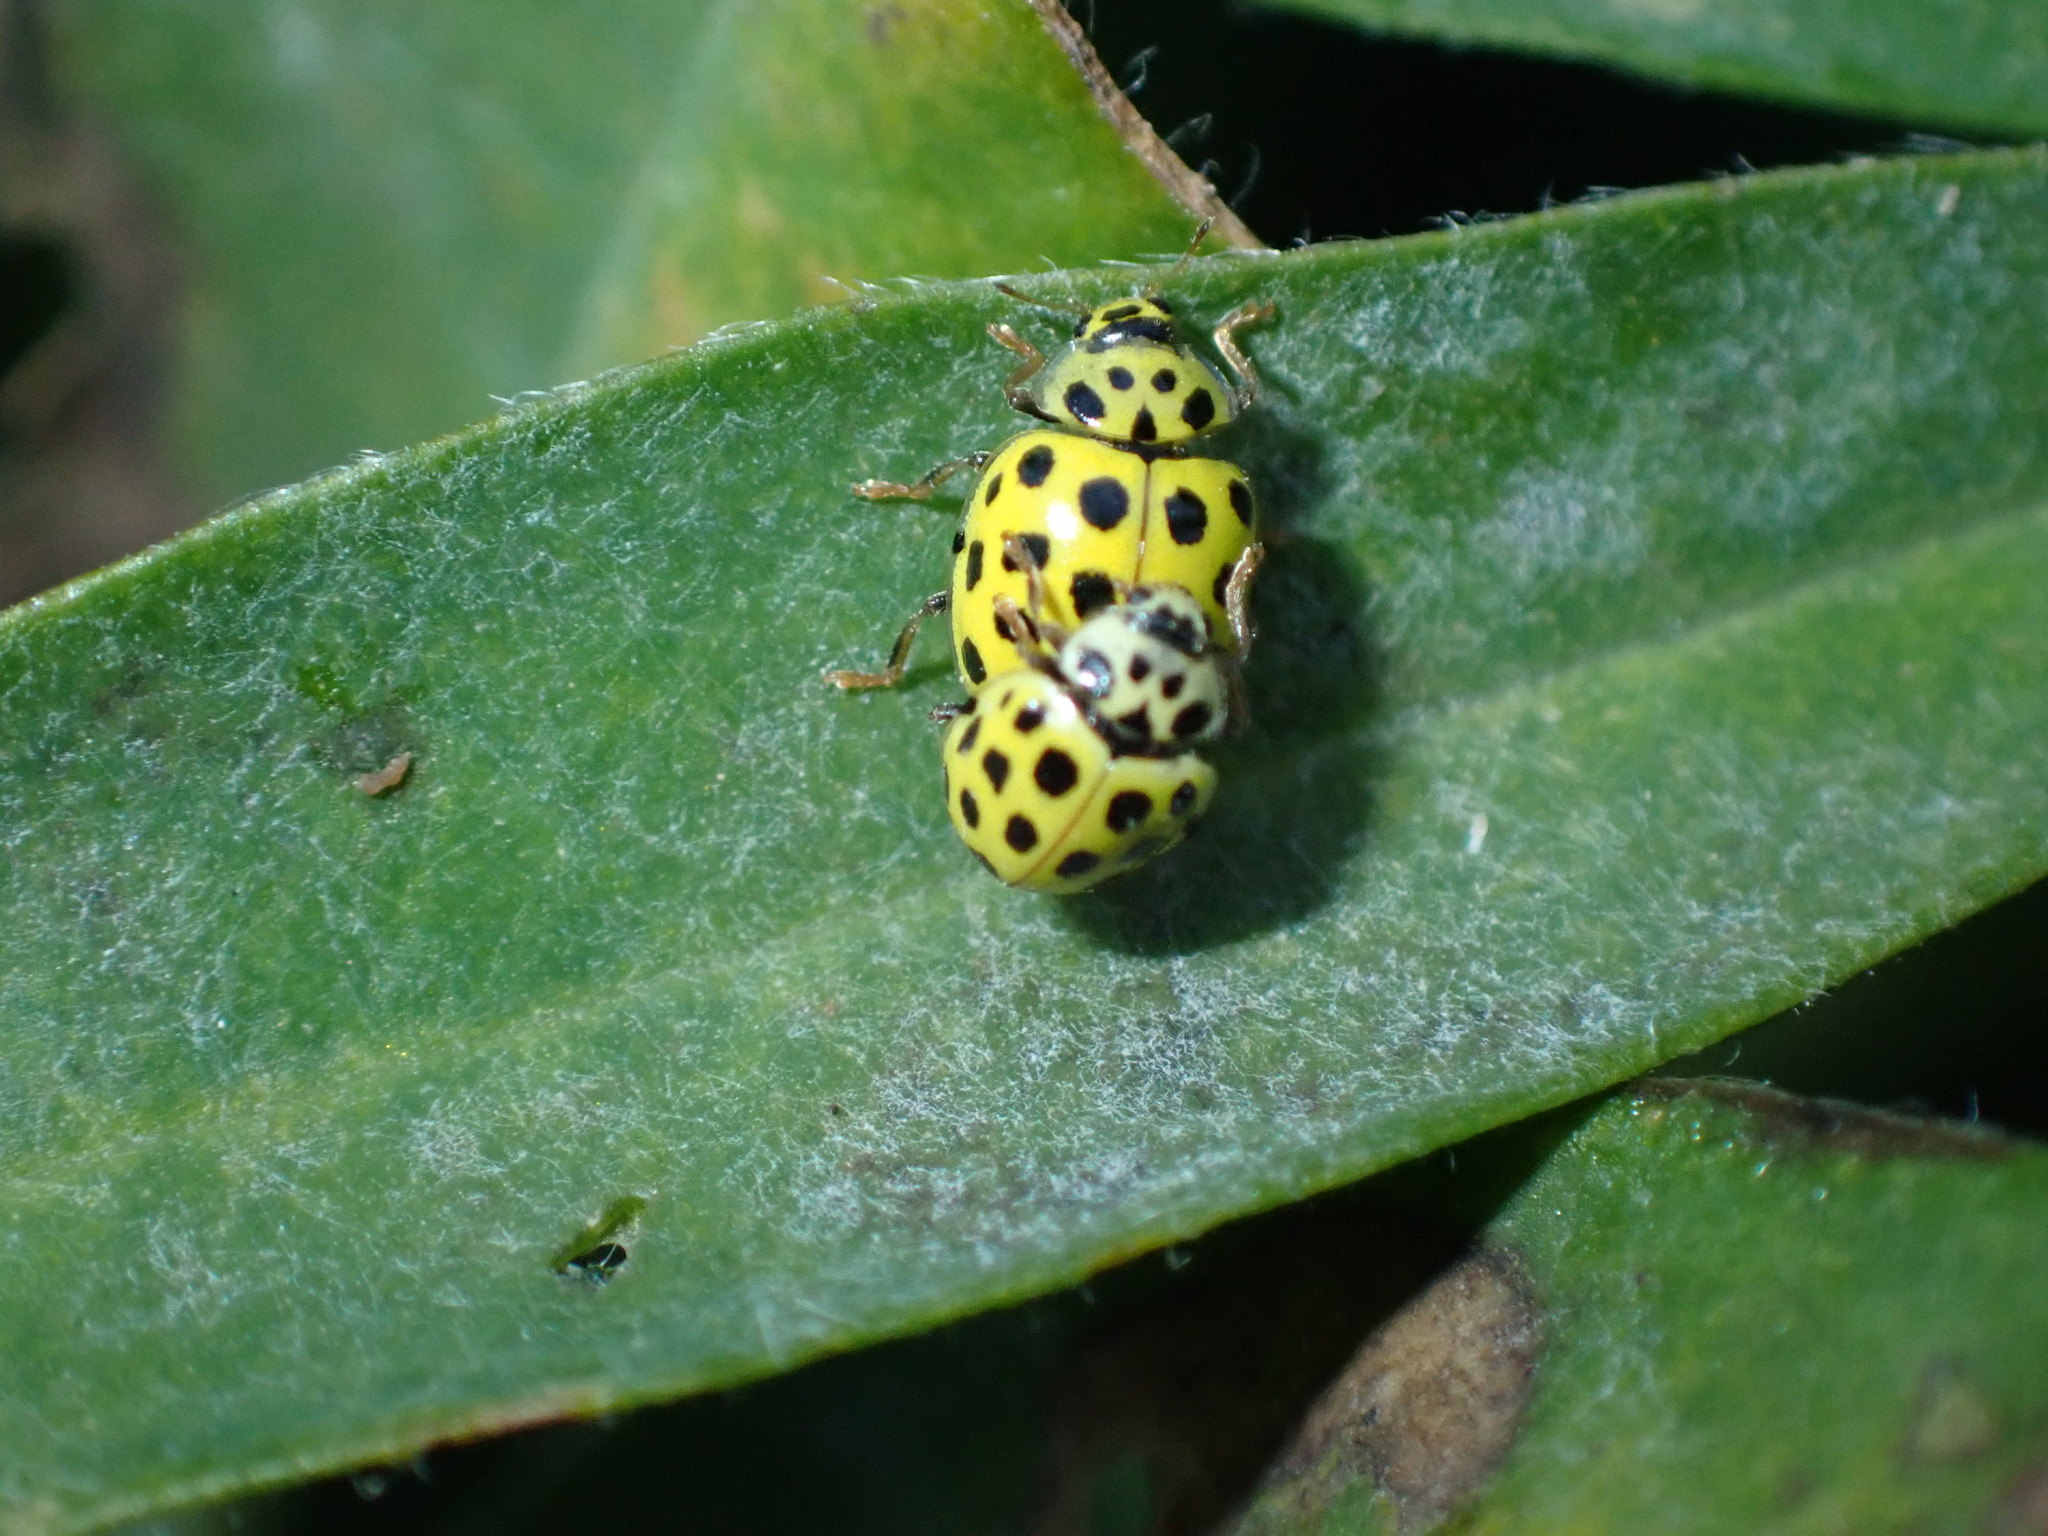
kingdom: Animalia
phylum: Arthropoda
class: Insecta
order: Coleoptera
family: Coccinellidae
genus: Psyllobora
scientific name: Psyllobora vigintiduopunctata
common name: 22-spot ladybird
